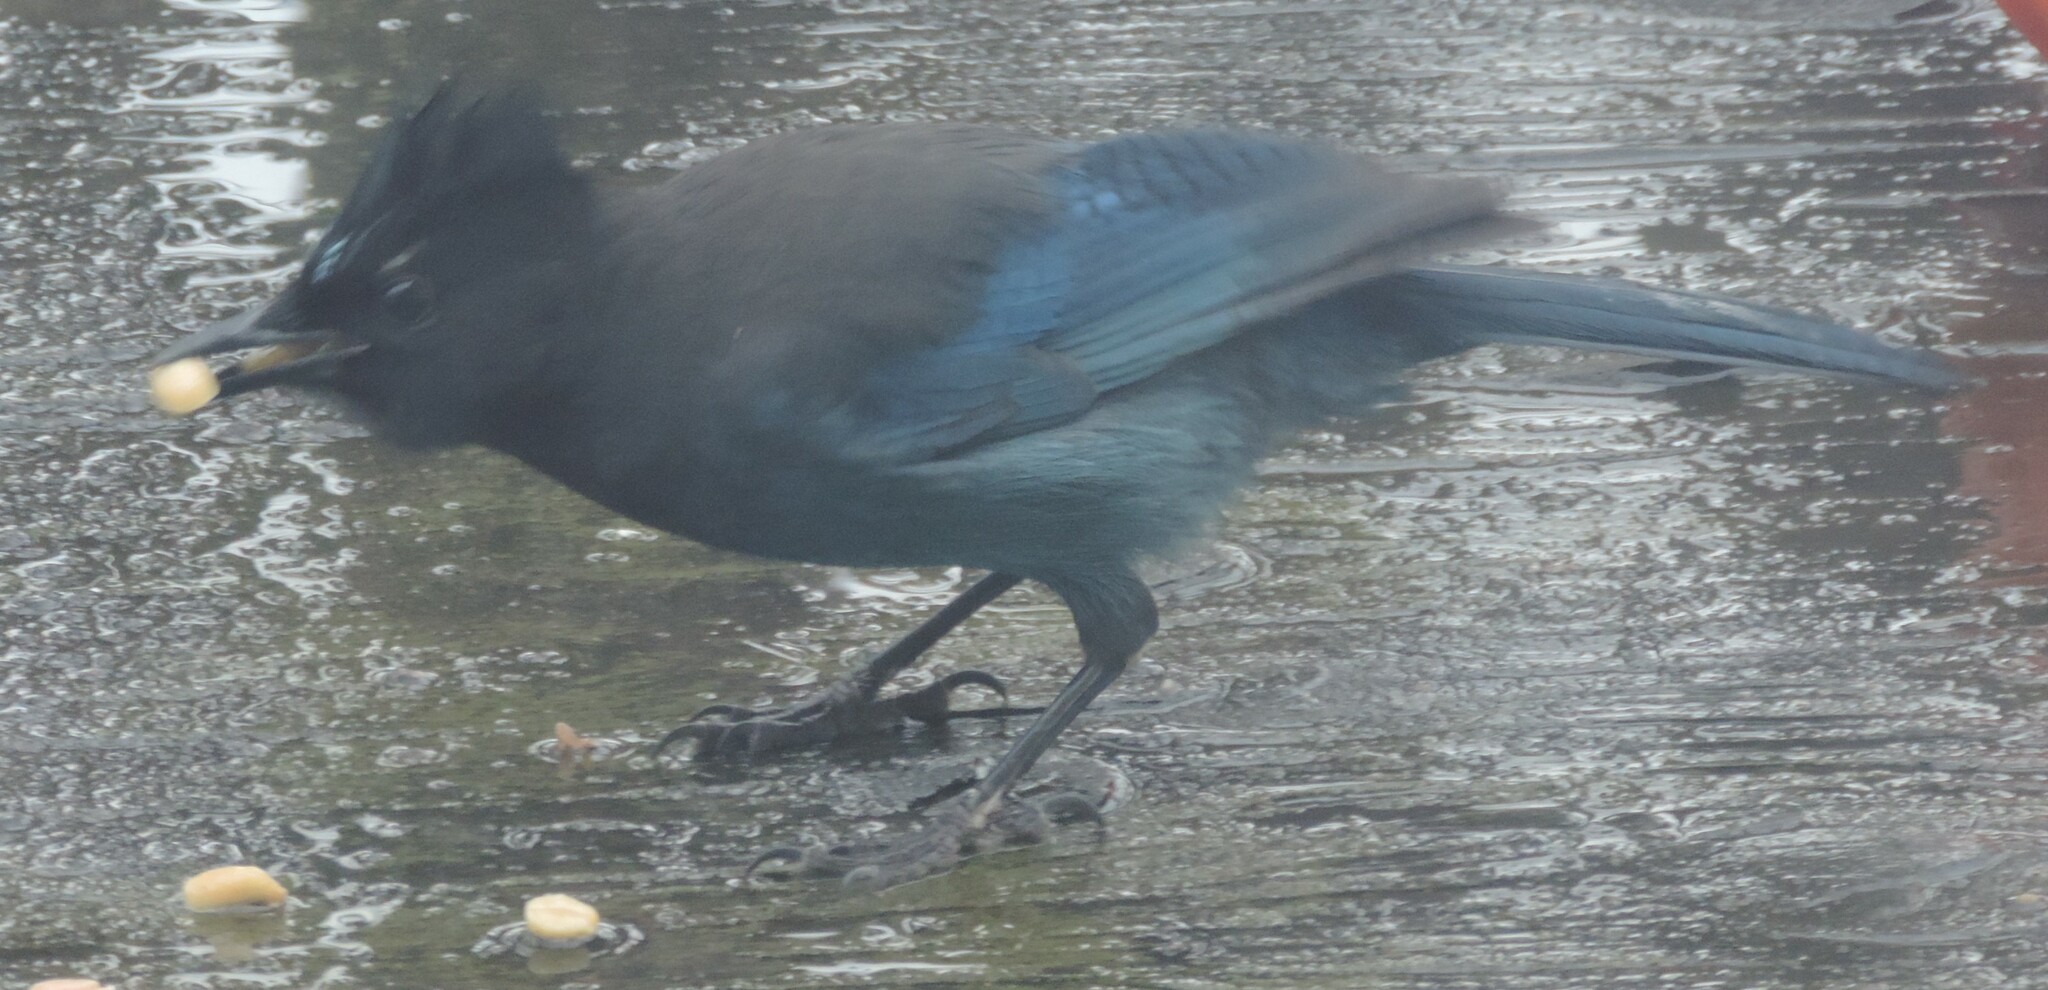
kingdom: Animalia
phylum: Chordata
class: Aves
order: Passeriformes
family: Corvidae
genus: Cyanocitta
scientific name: Cyanocitta stelleri
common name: Steller's jay
